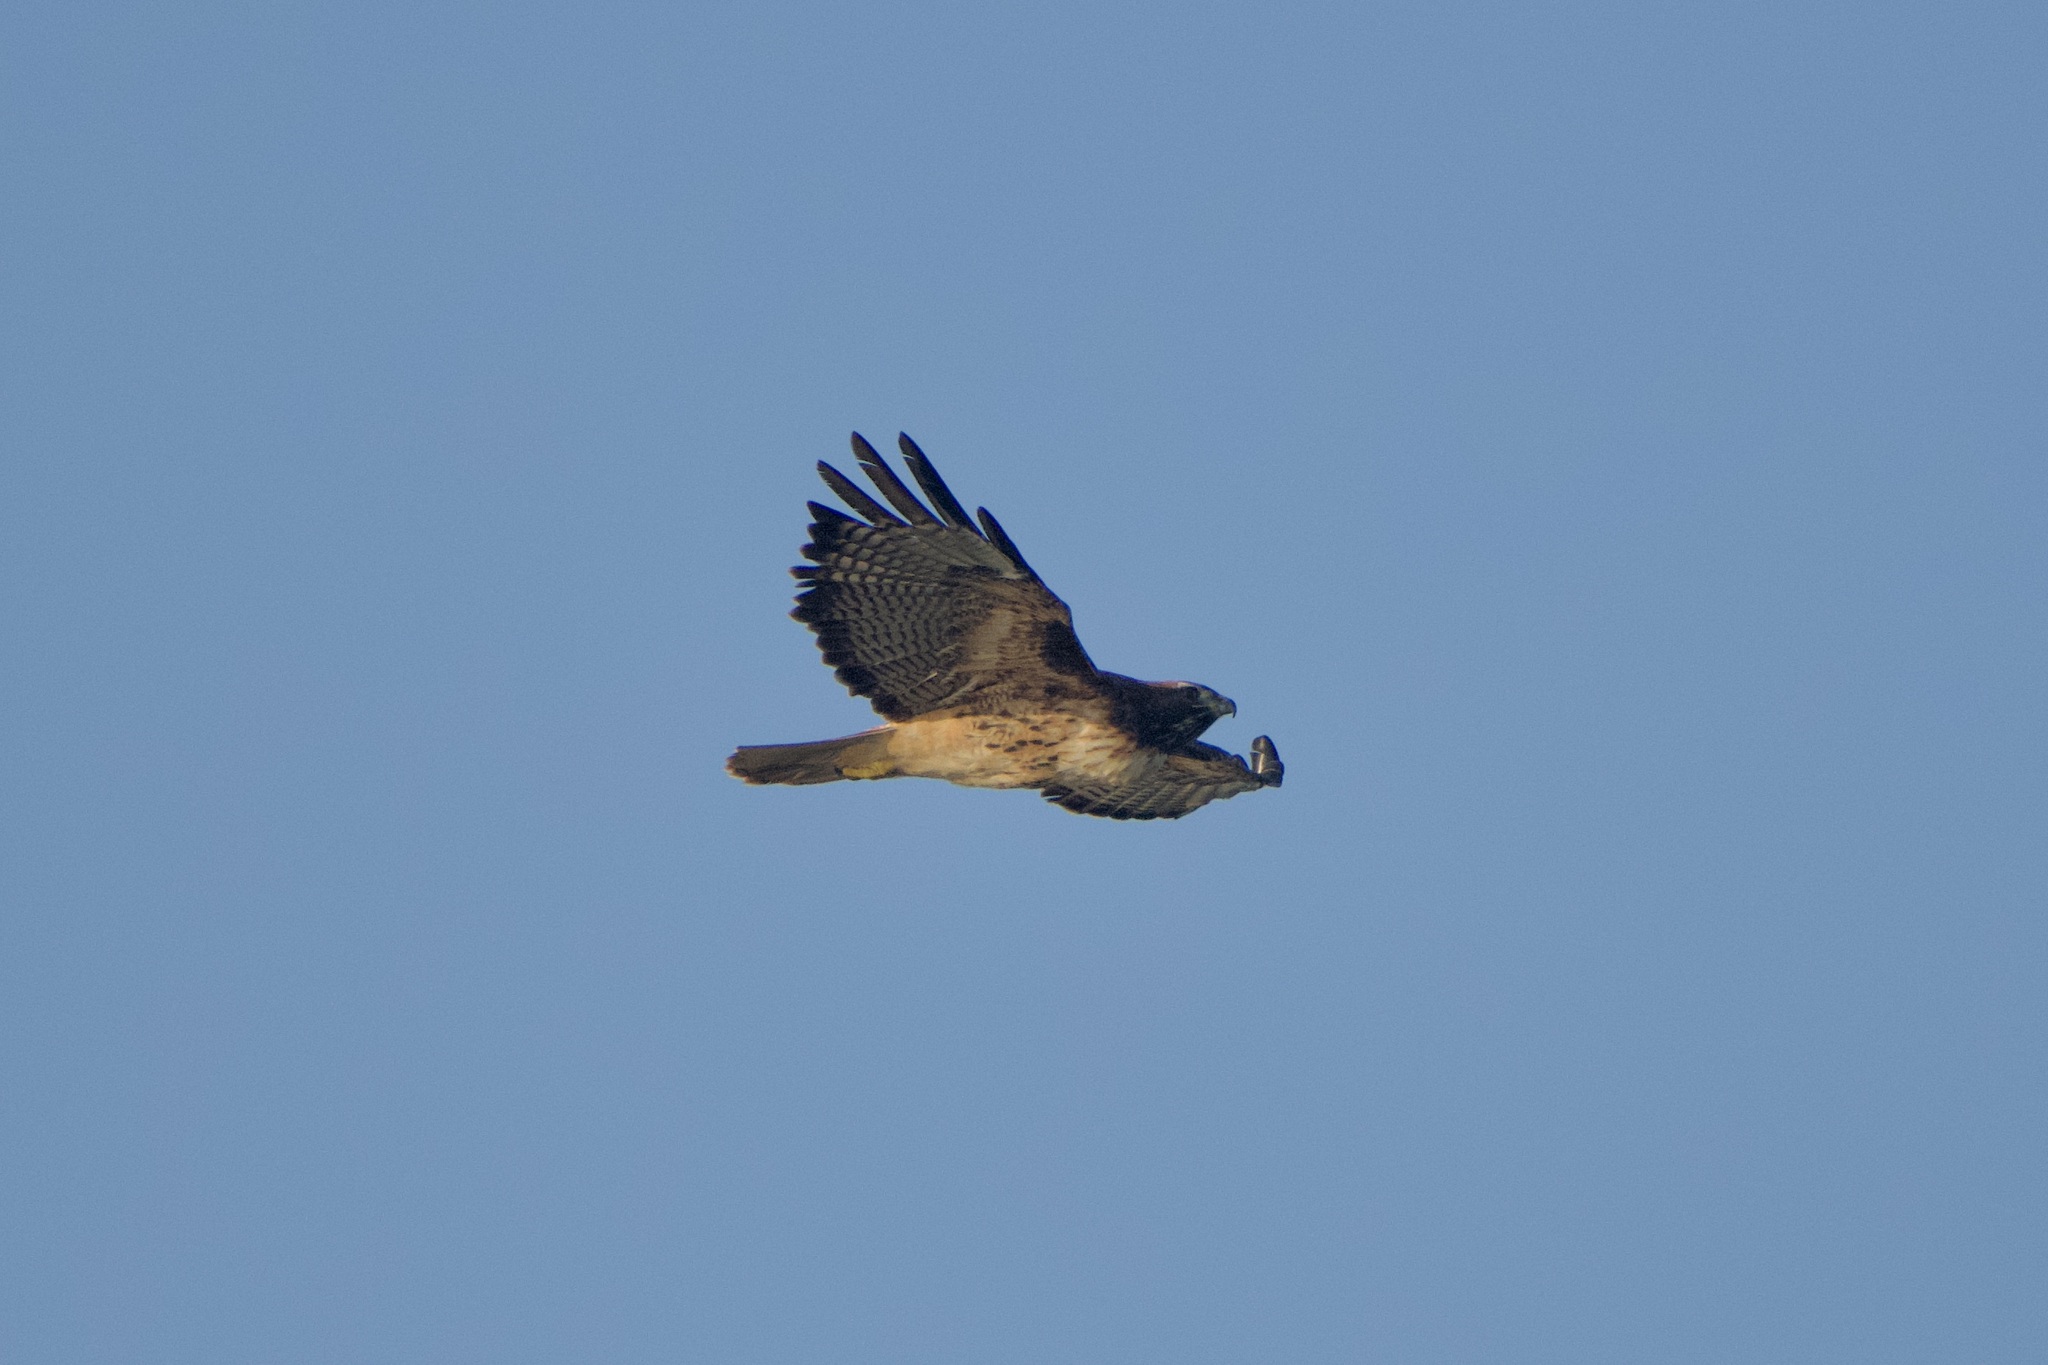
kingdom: Animalia
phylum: Chordata
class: Aves
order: Accipitriformes
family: Accipitridae
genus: Buteo
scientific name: Buteo jamaicensis
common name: Red-tailed hawk
